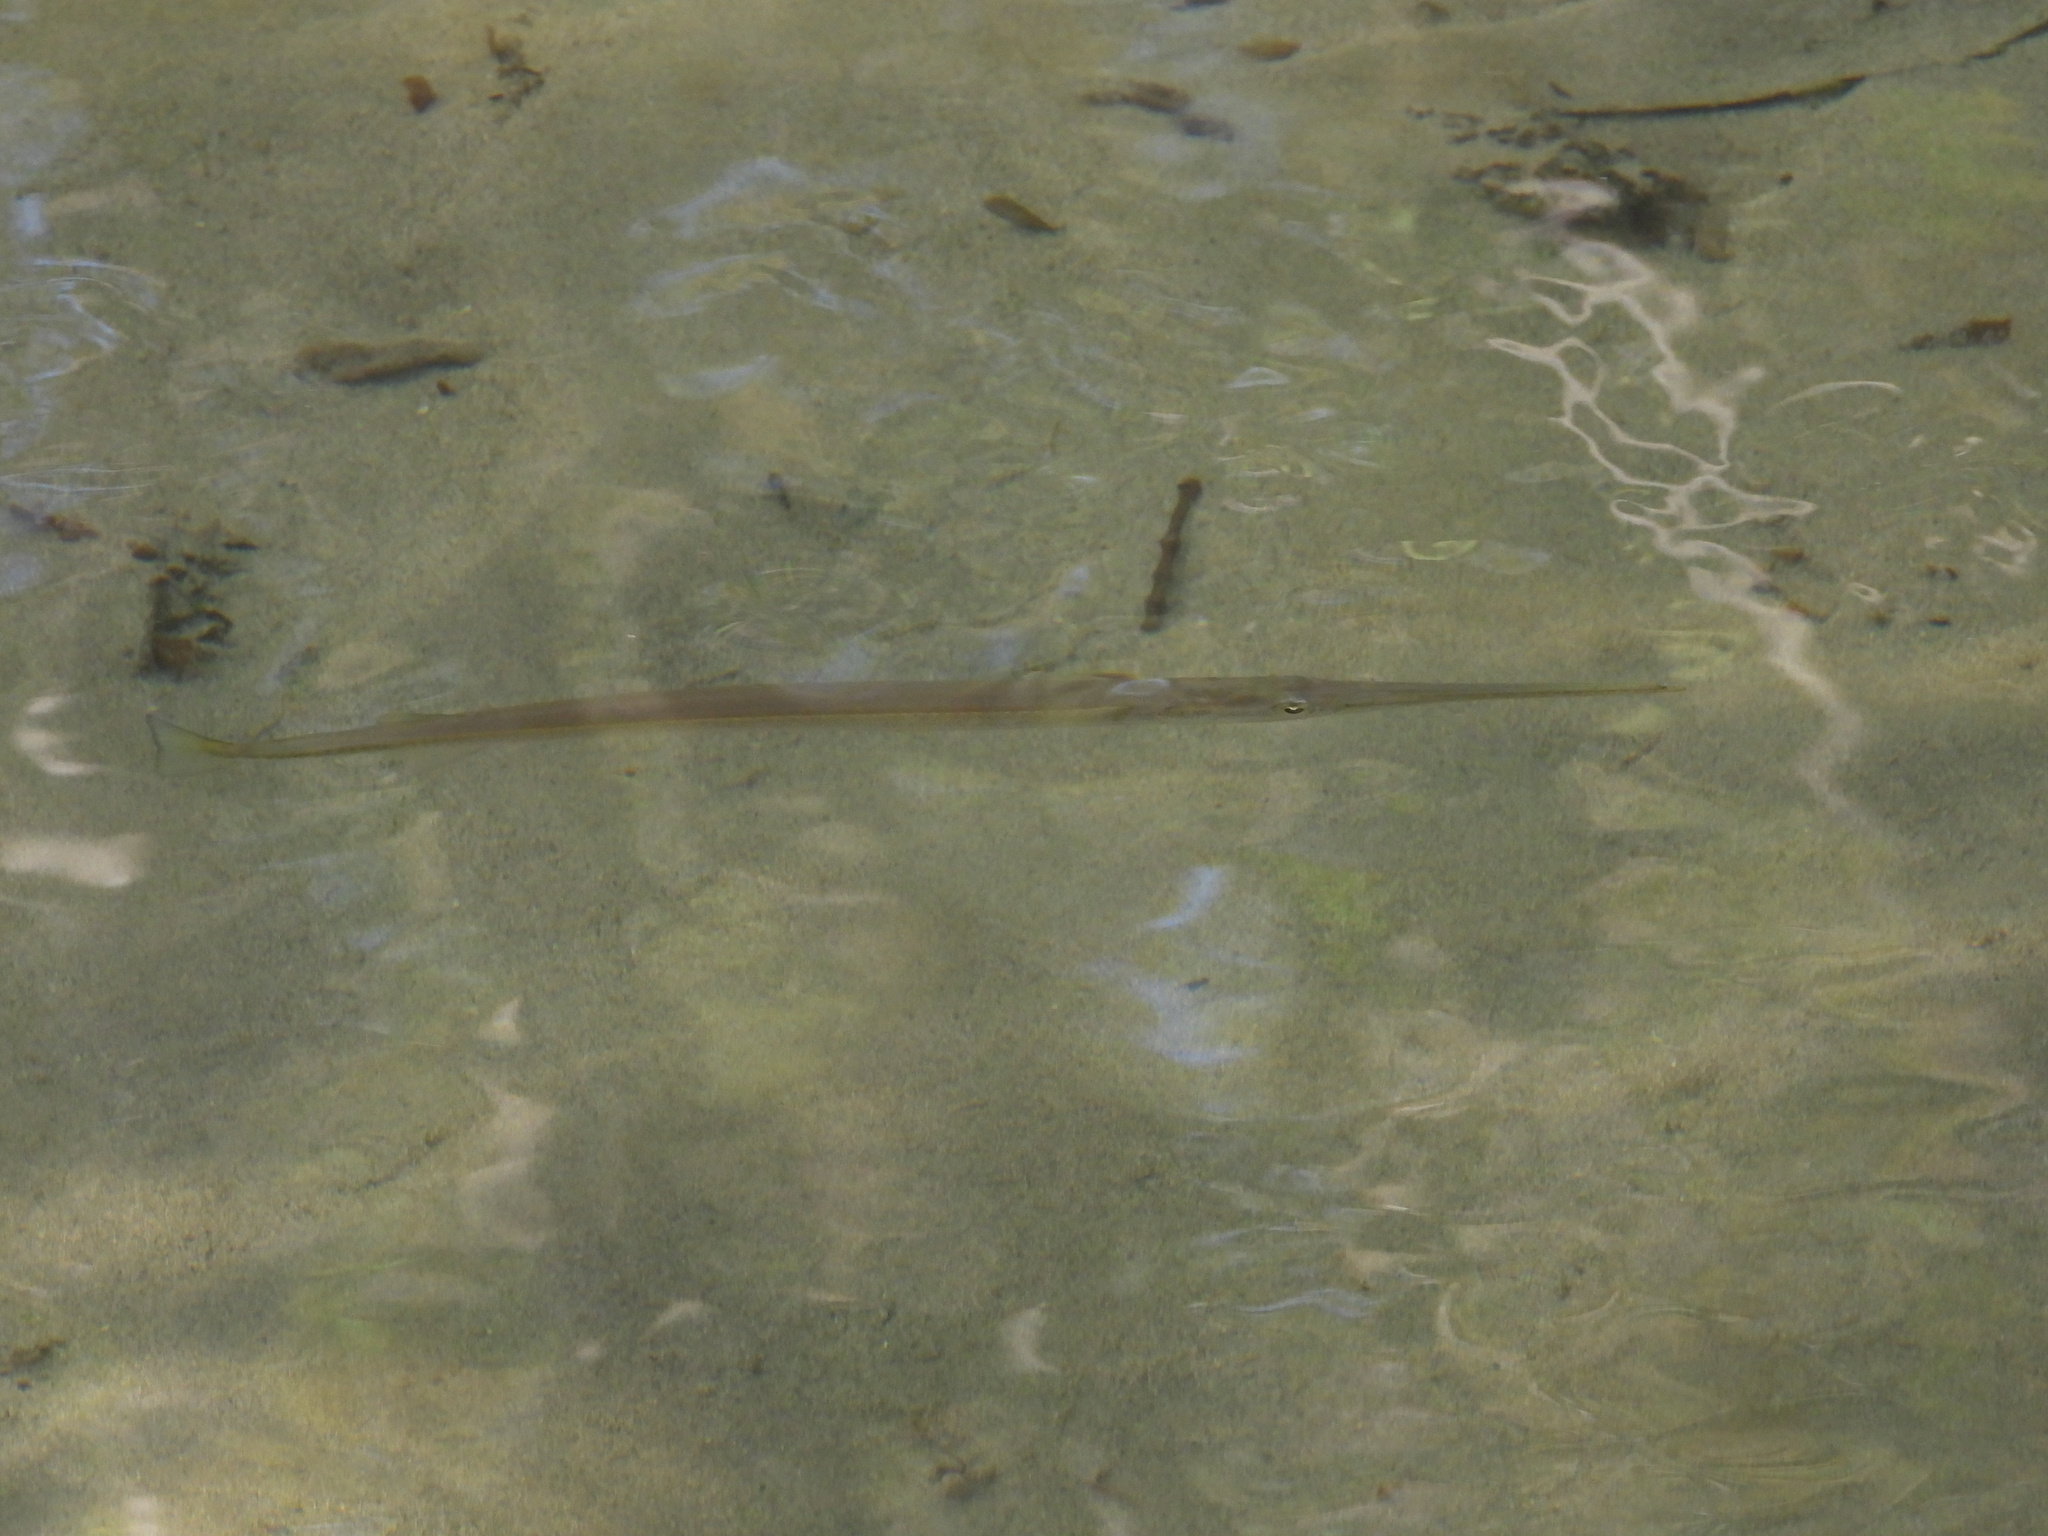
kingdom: Animalia
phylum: Chordata
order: Perciformes
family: Gerreidae
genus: Gerres
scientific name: Gerres cinereus
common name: Hedow
